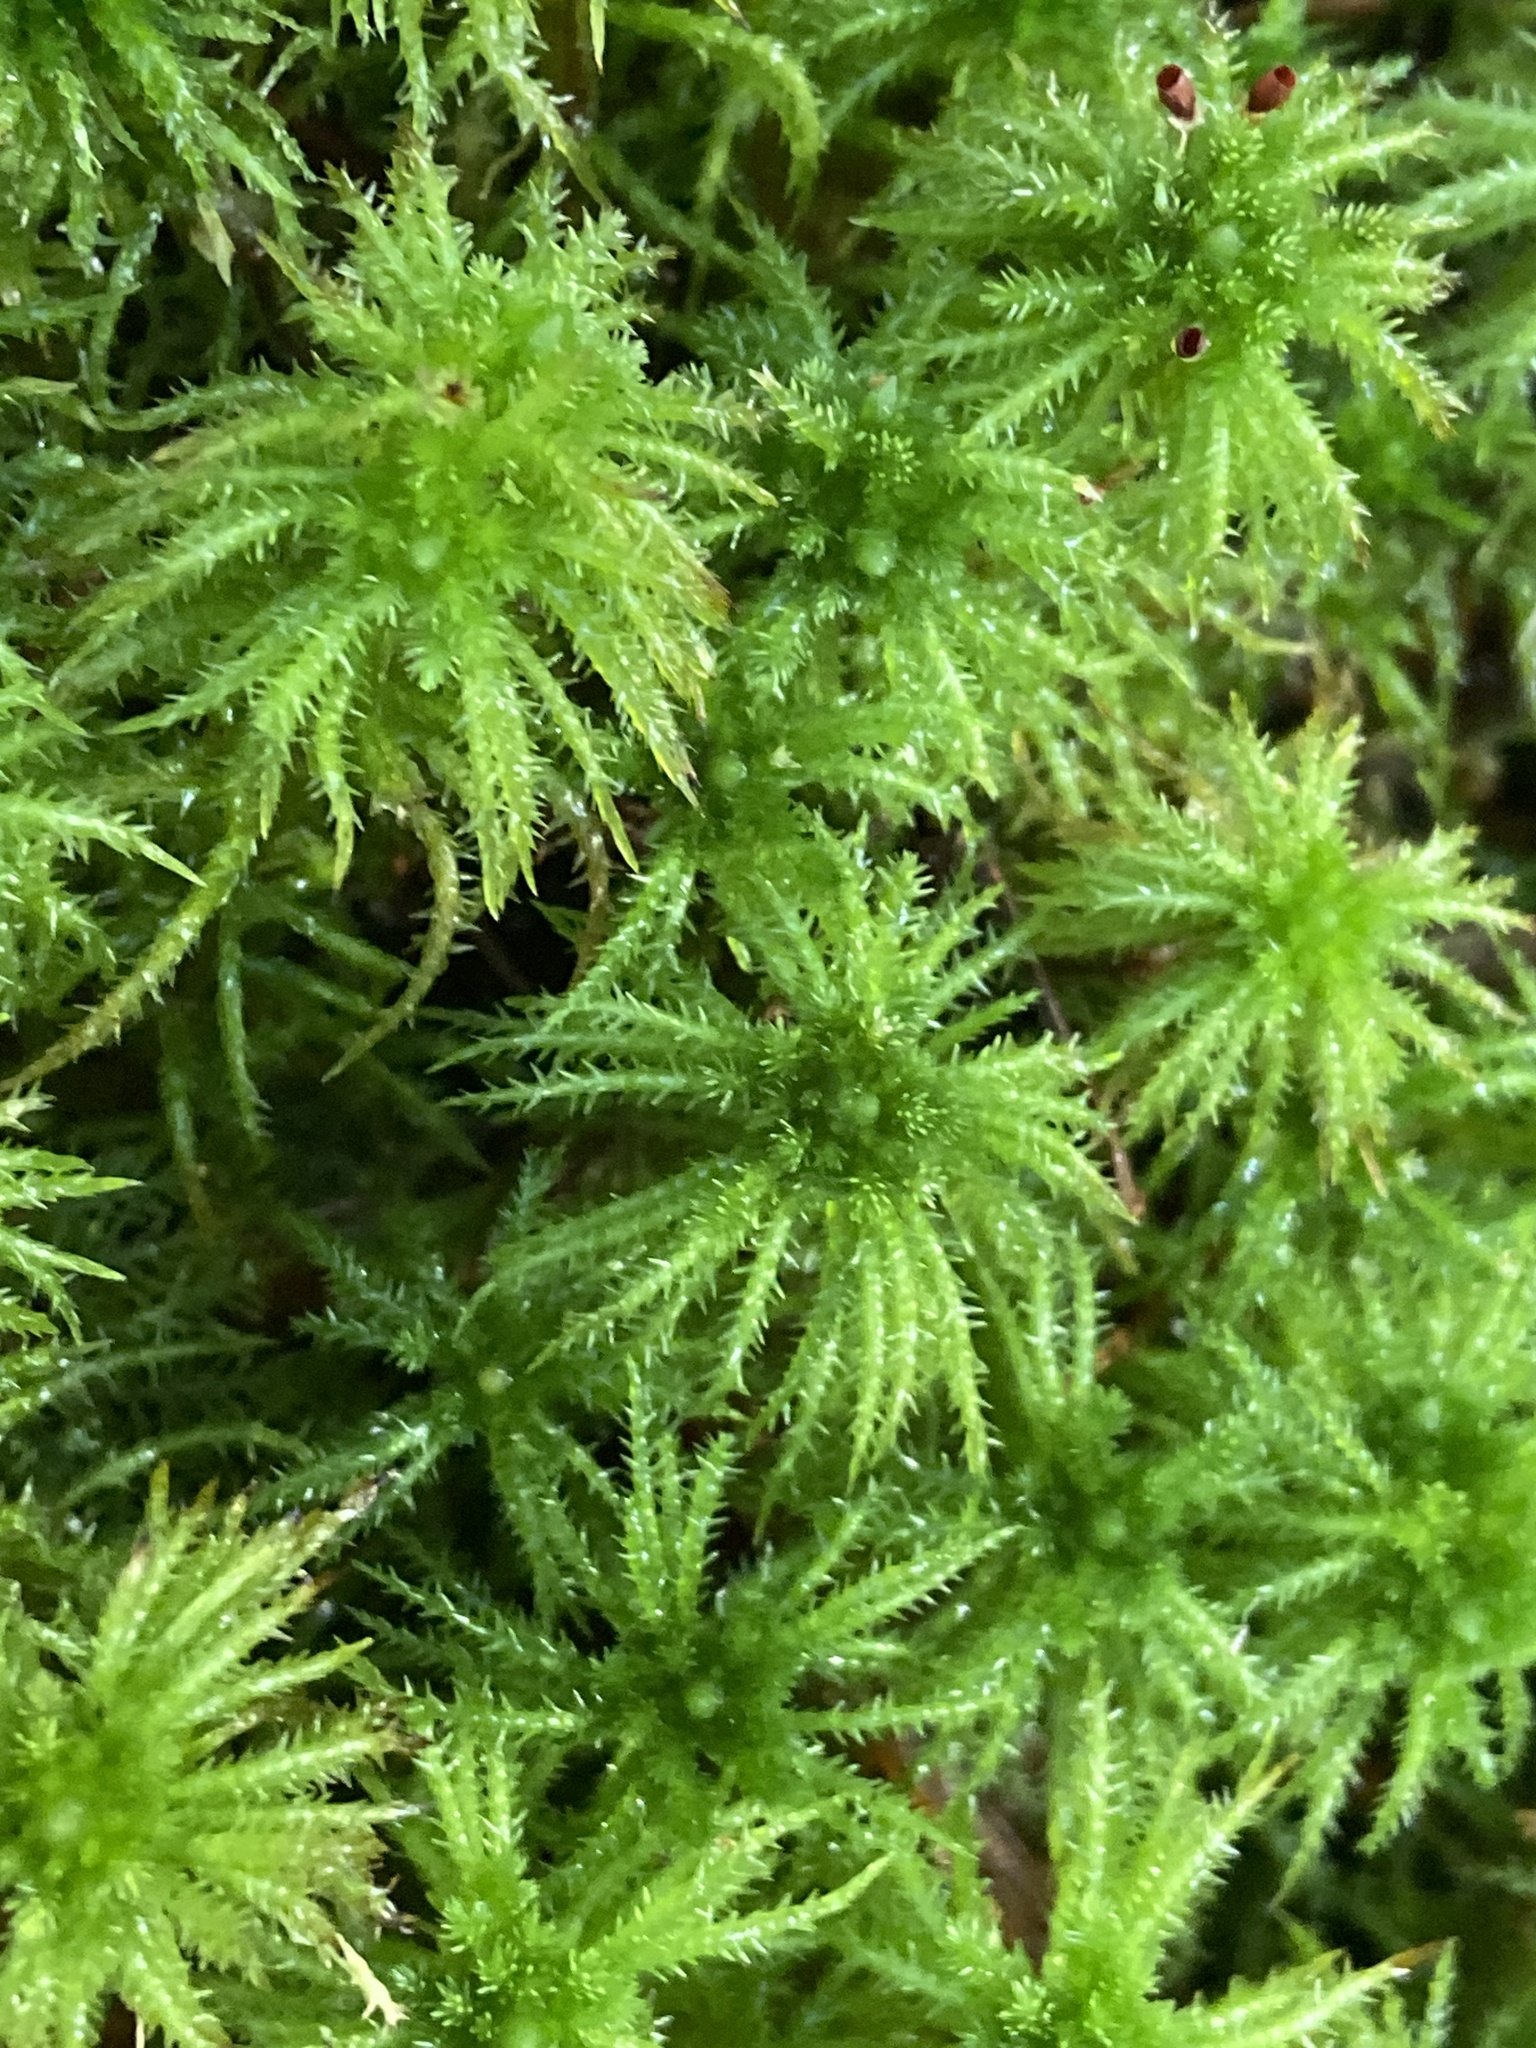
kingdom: Plantae
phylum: Bryophyta
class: Sphagnopsida
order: Sphagnales
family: Sphagnaceae
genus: Sphagnum
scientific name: Sphagnum squarrosum
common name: Shaggy peat moss
